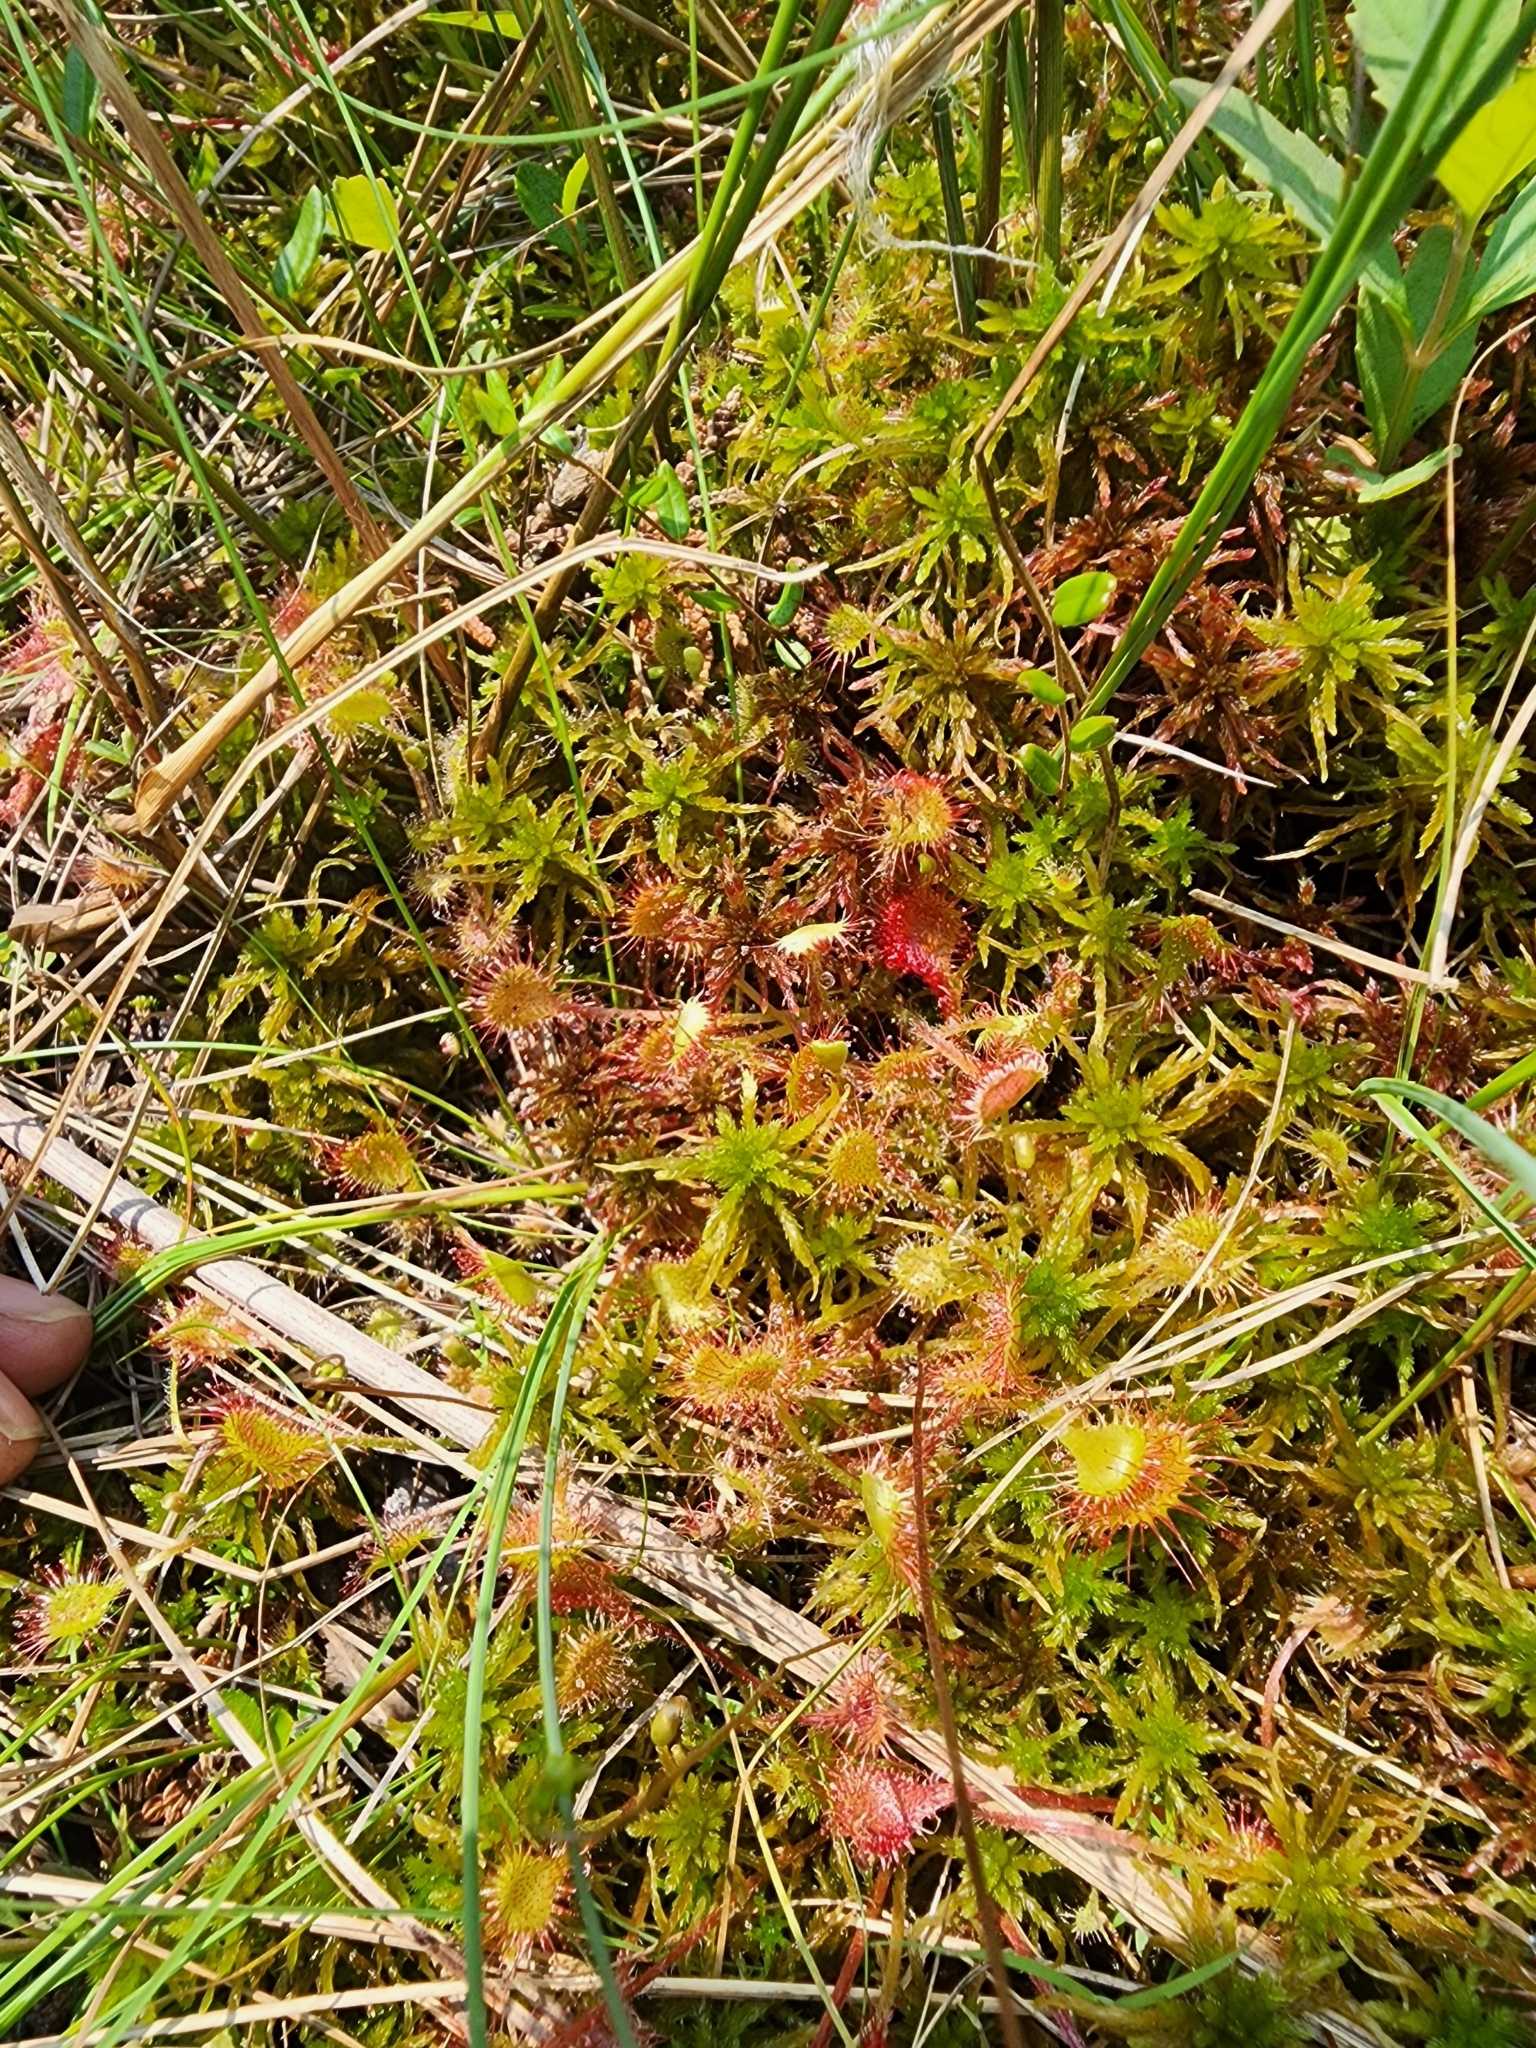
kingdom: Plantae
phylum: Tracheophyta
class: Magnoliopsida
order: Caryophyllales
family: Droseraceae
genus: Drosera
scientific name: Drosera rotundifolia
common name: Round-leaved sundew
